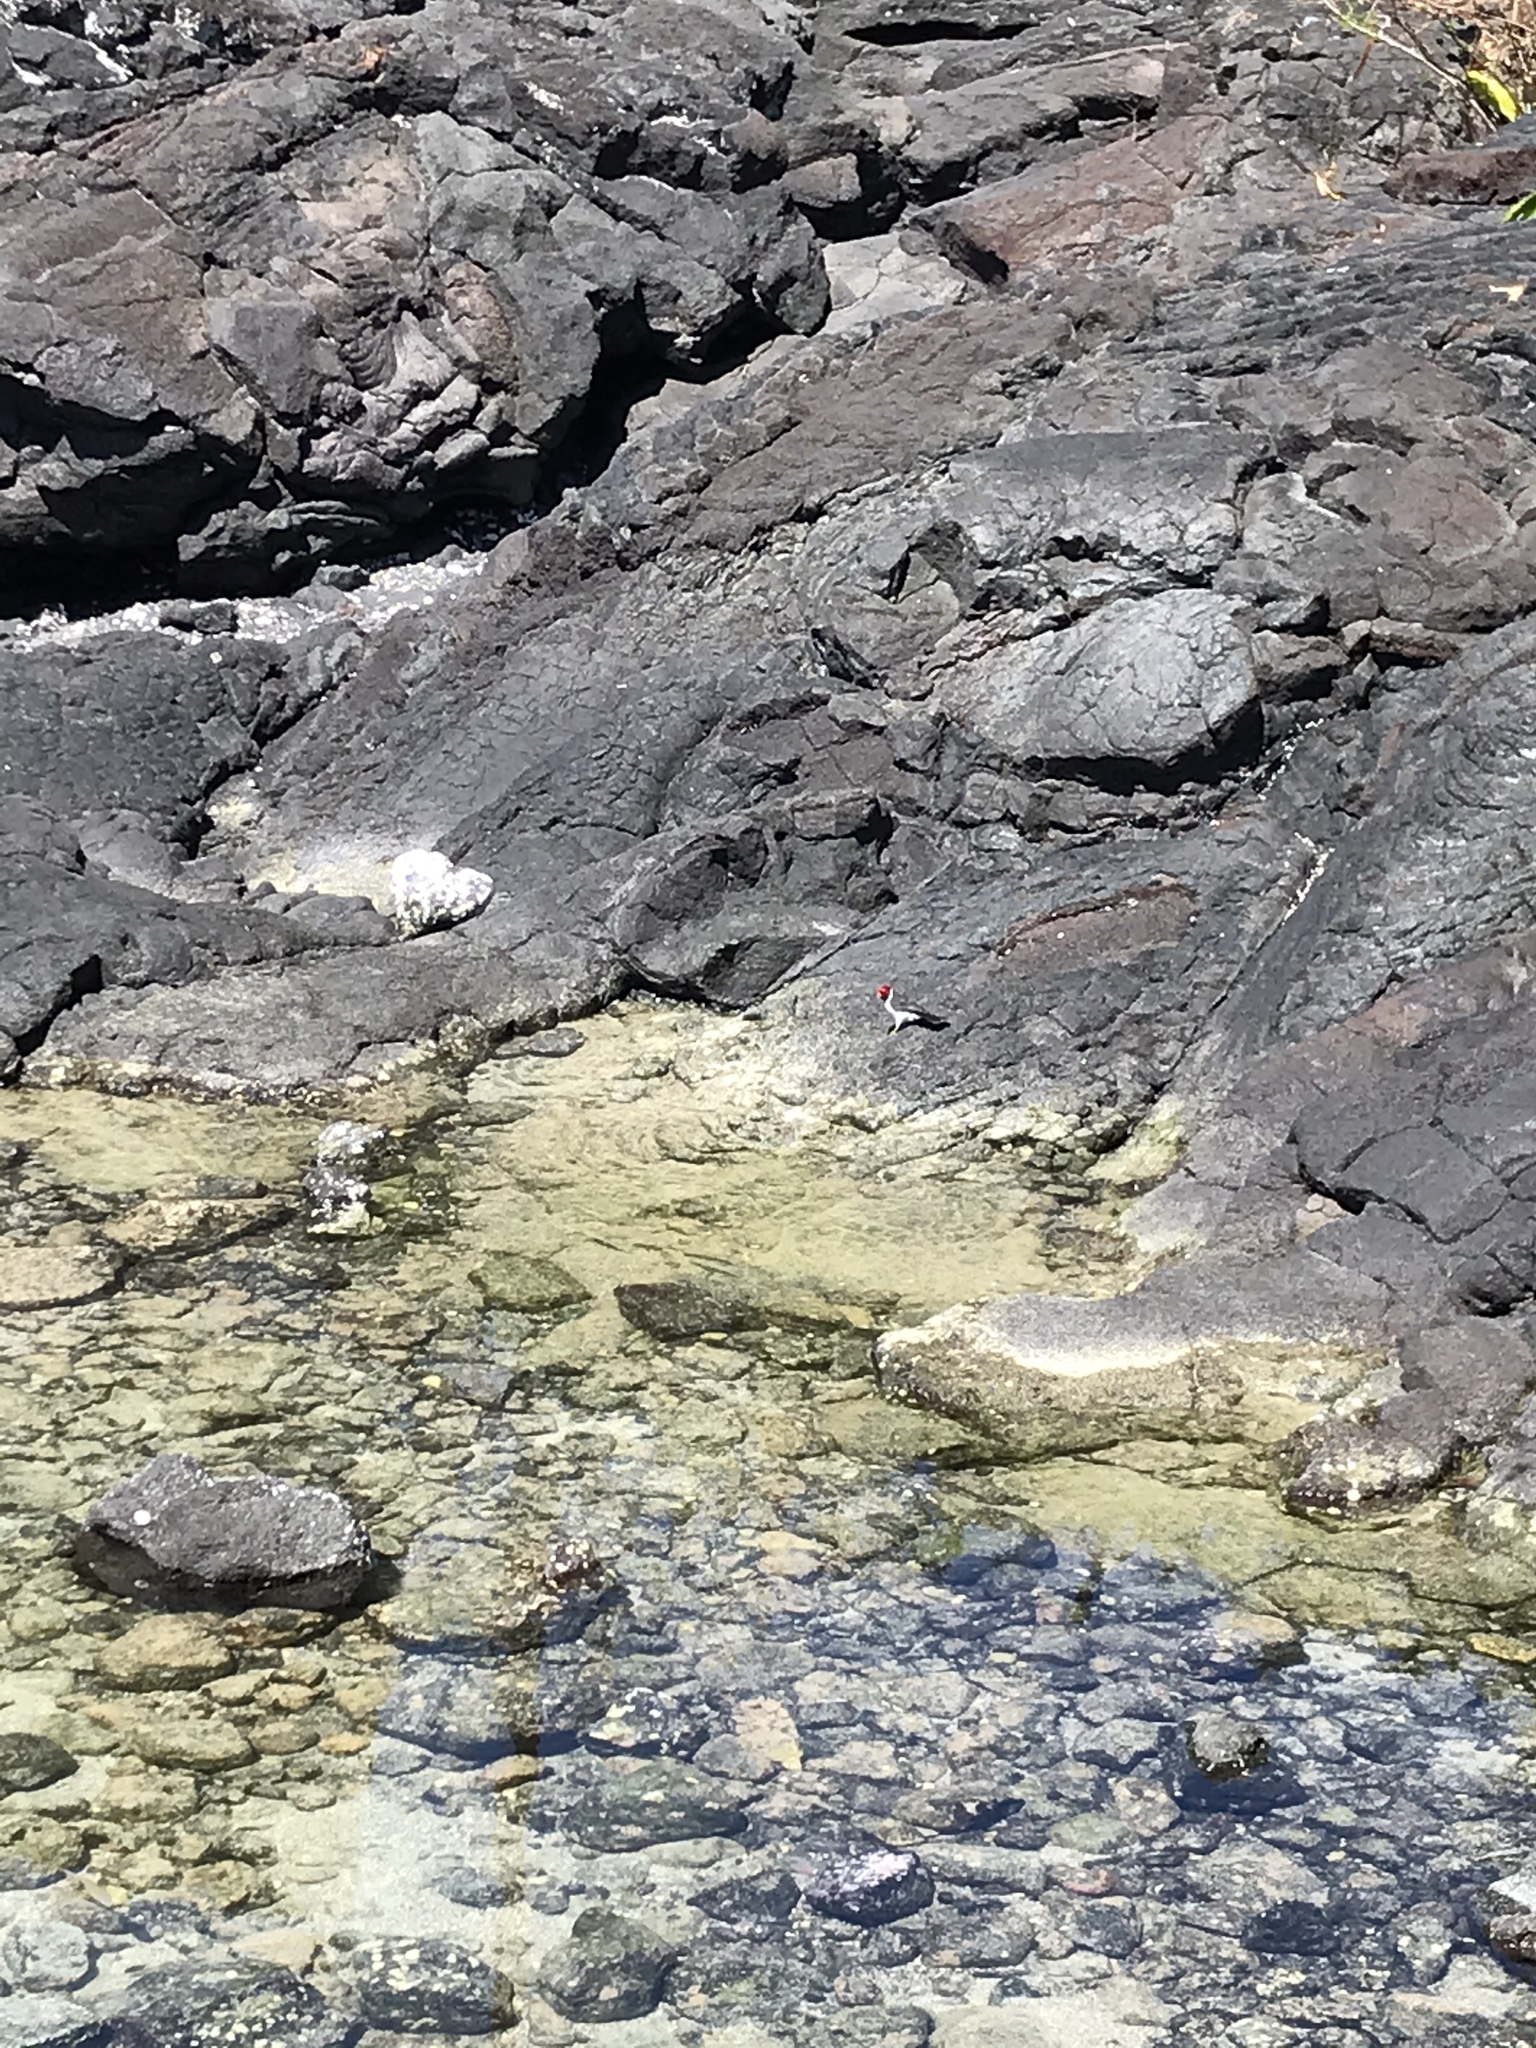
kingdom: Animalia
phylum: Chordata
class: Aves
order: Passeriformes
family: Thraupidae
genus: Paroaria
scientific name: Paroaria capitata
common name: Yellow-billed cardinal
